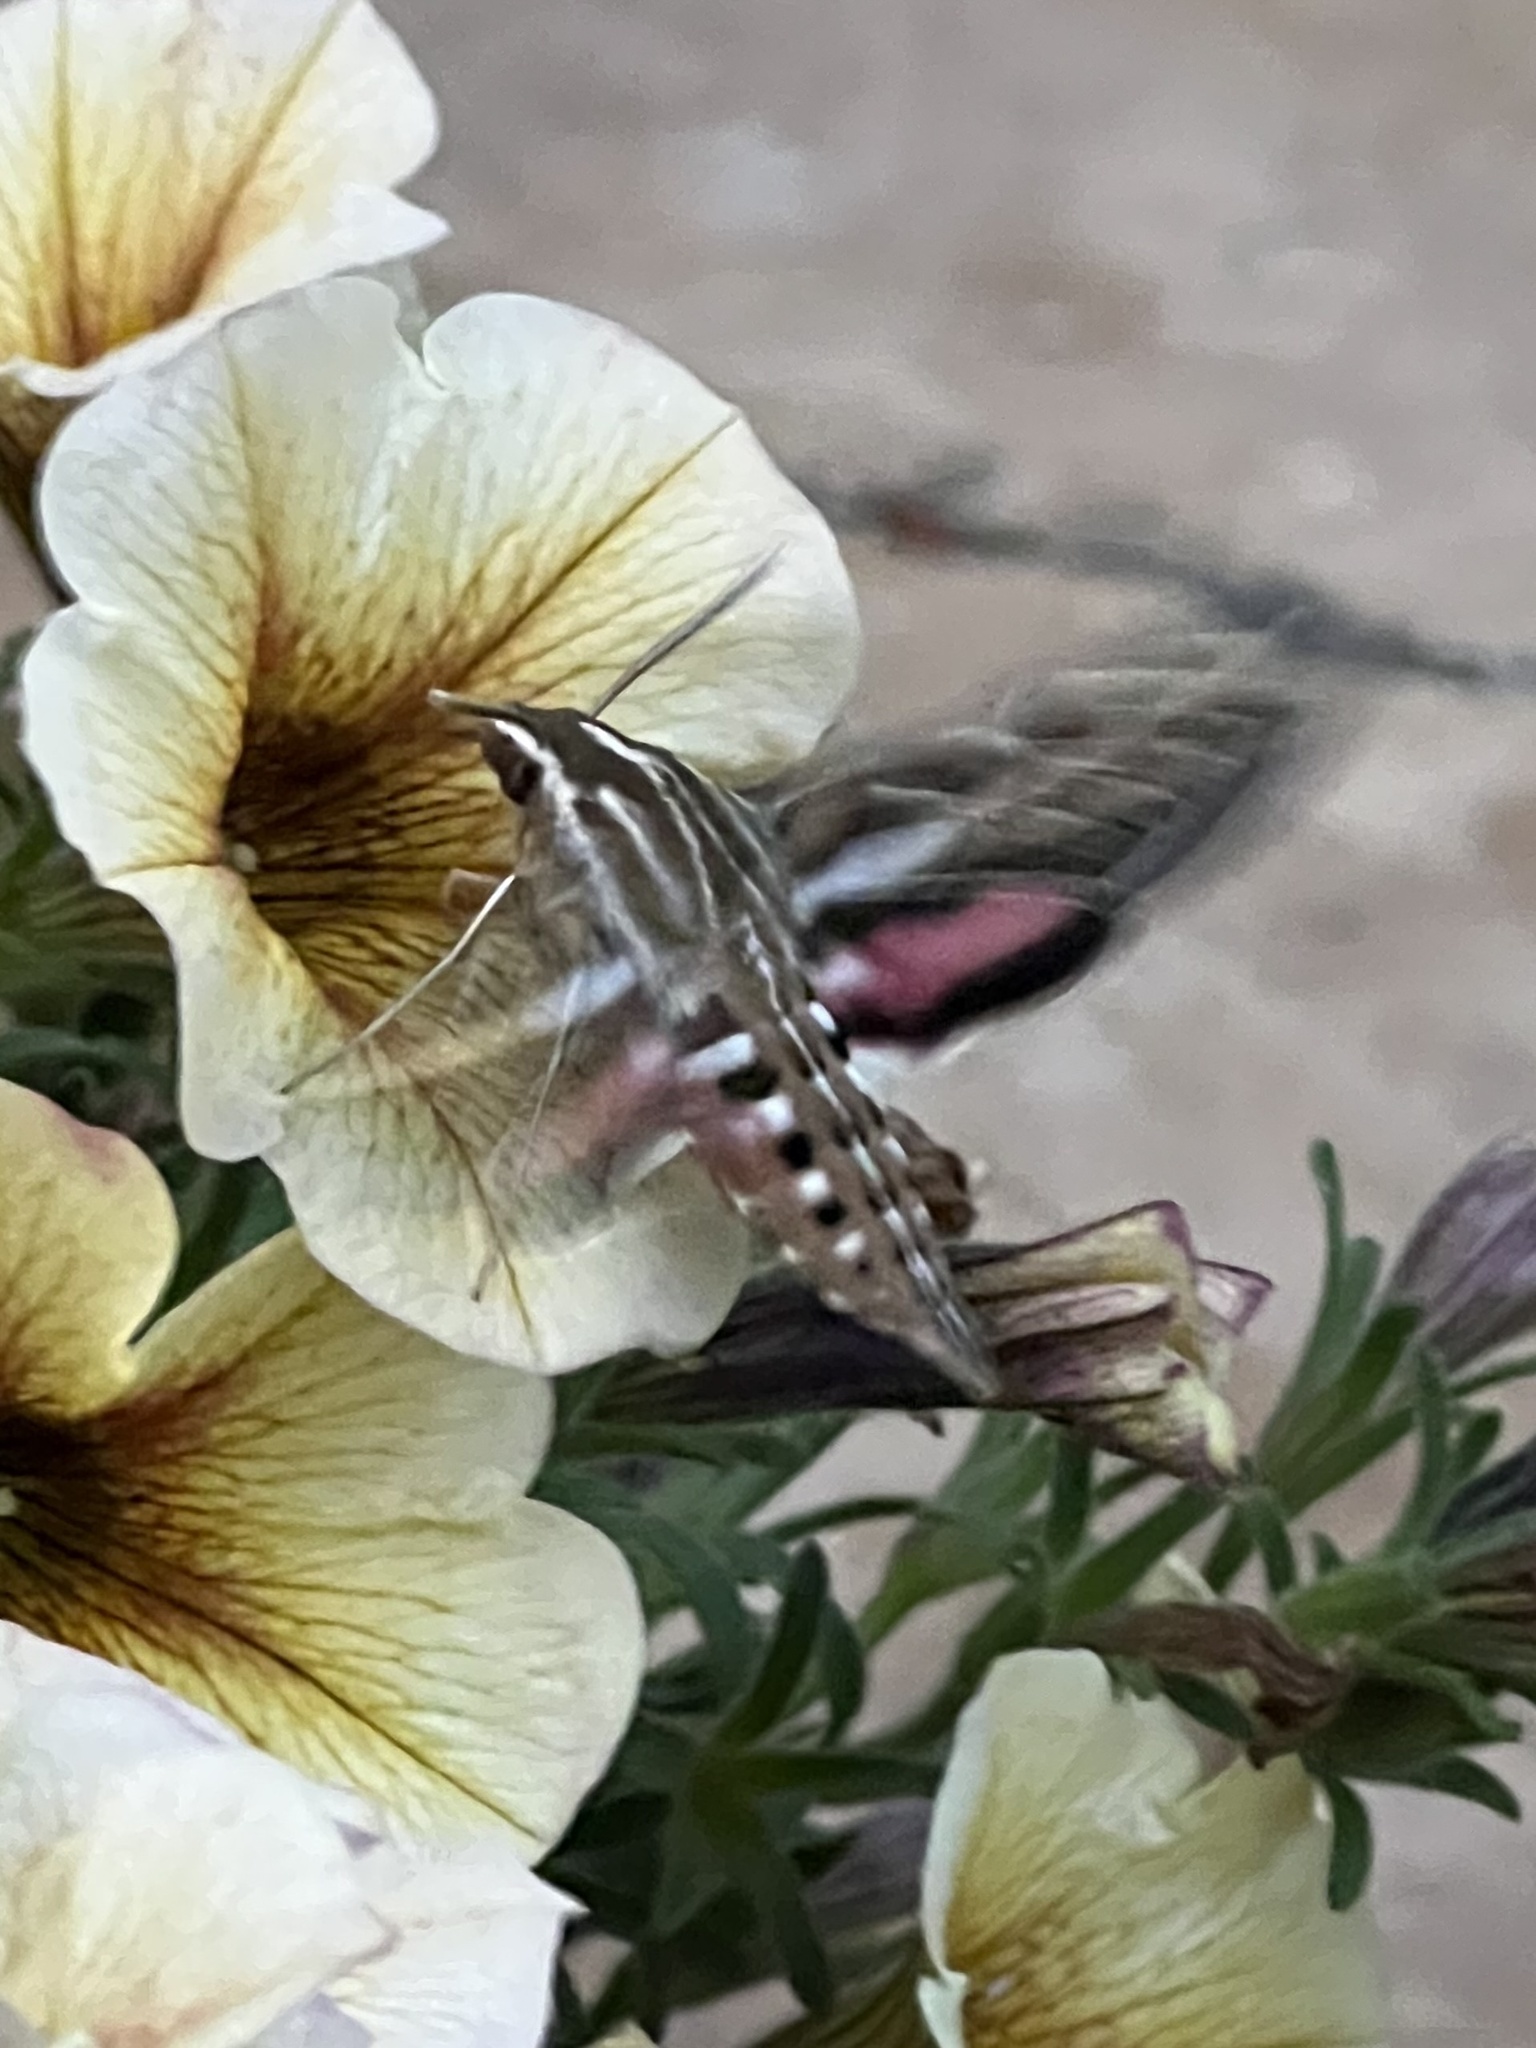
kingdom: Animalia
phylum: Arthropoda
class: Insecta
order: Lepidoptera
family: Sphingidae
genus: Hyles
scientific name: Hyles lineata
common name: White-lined sphinx
